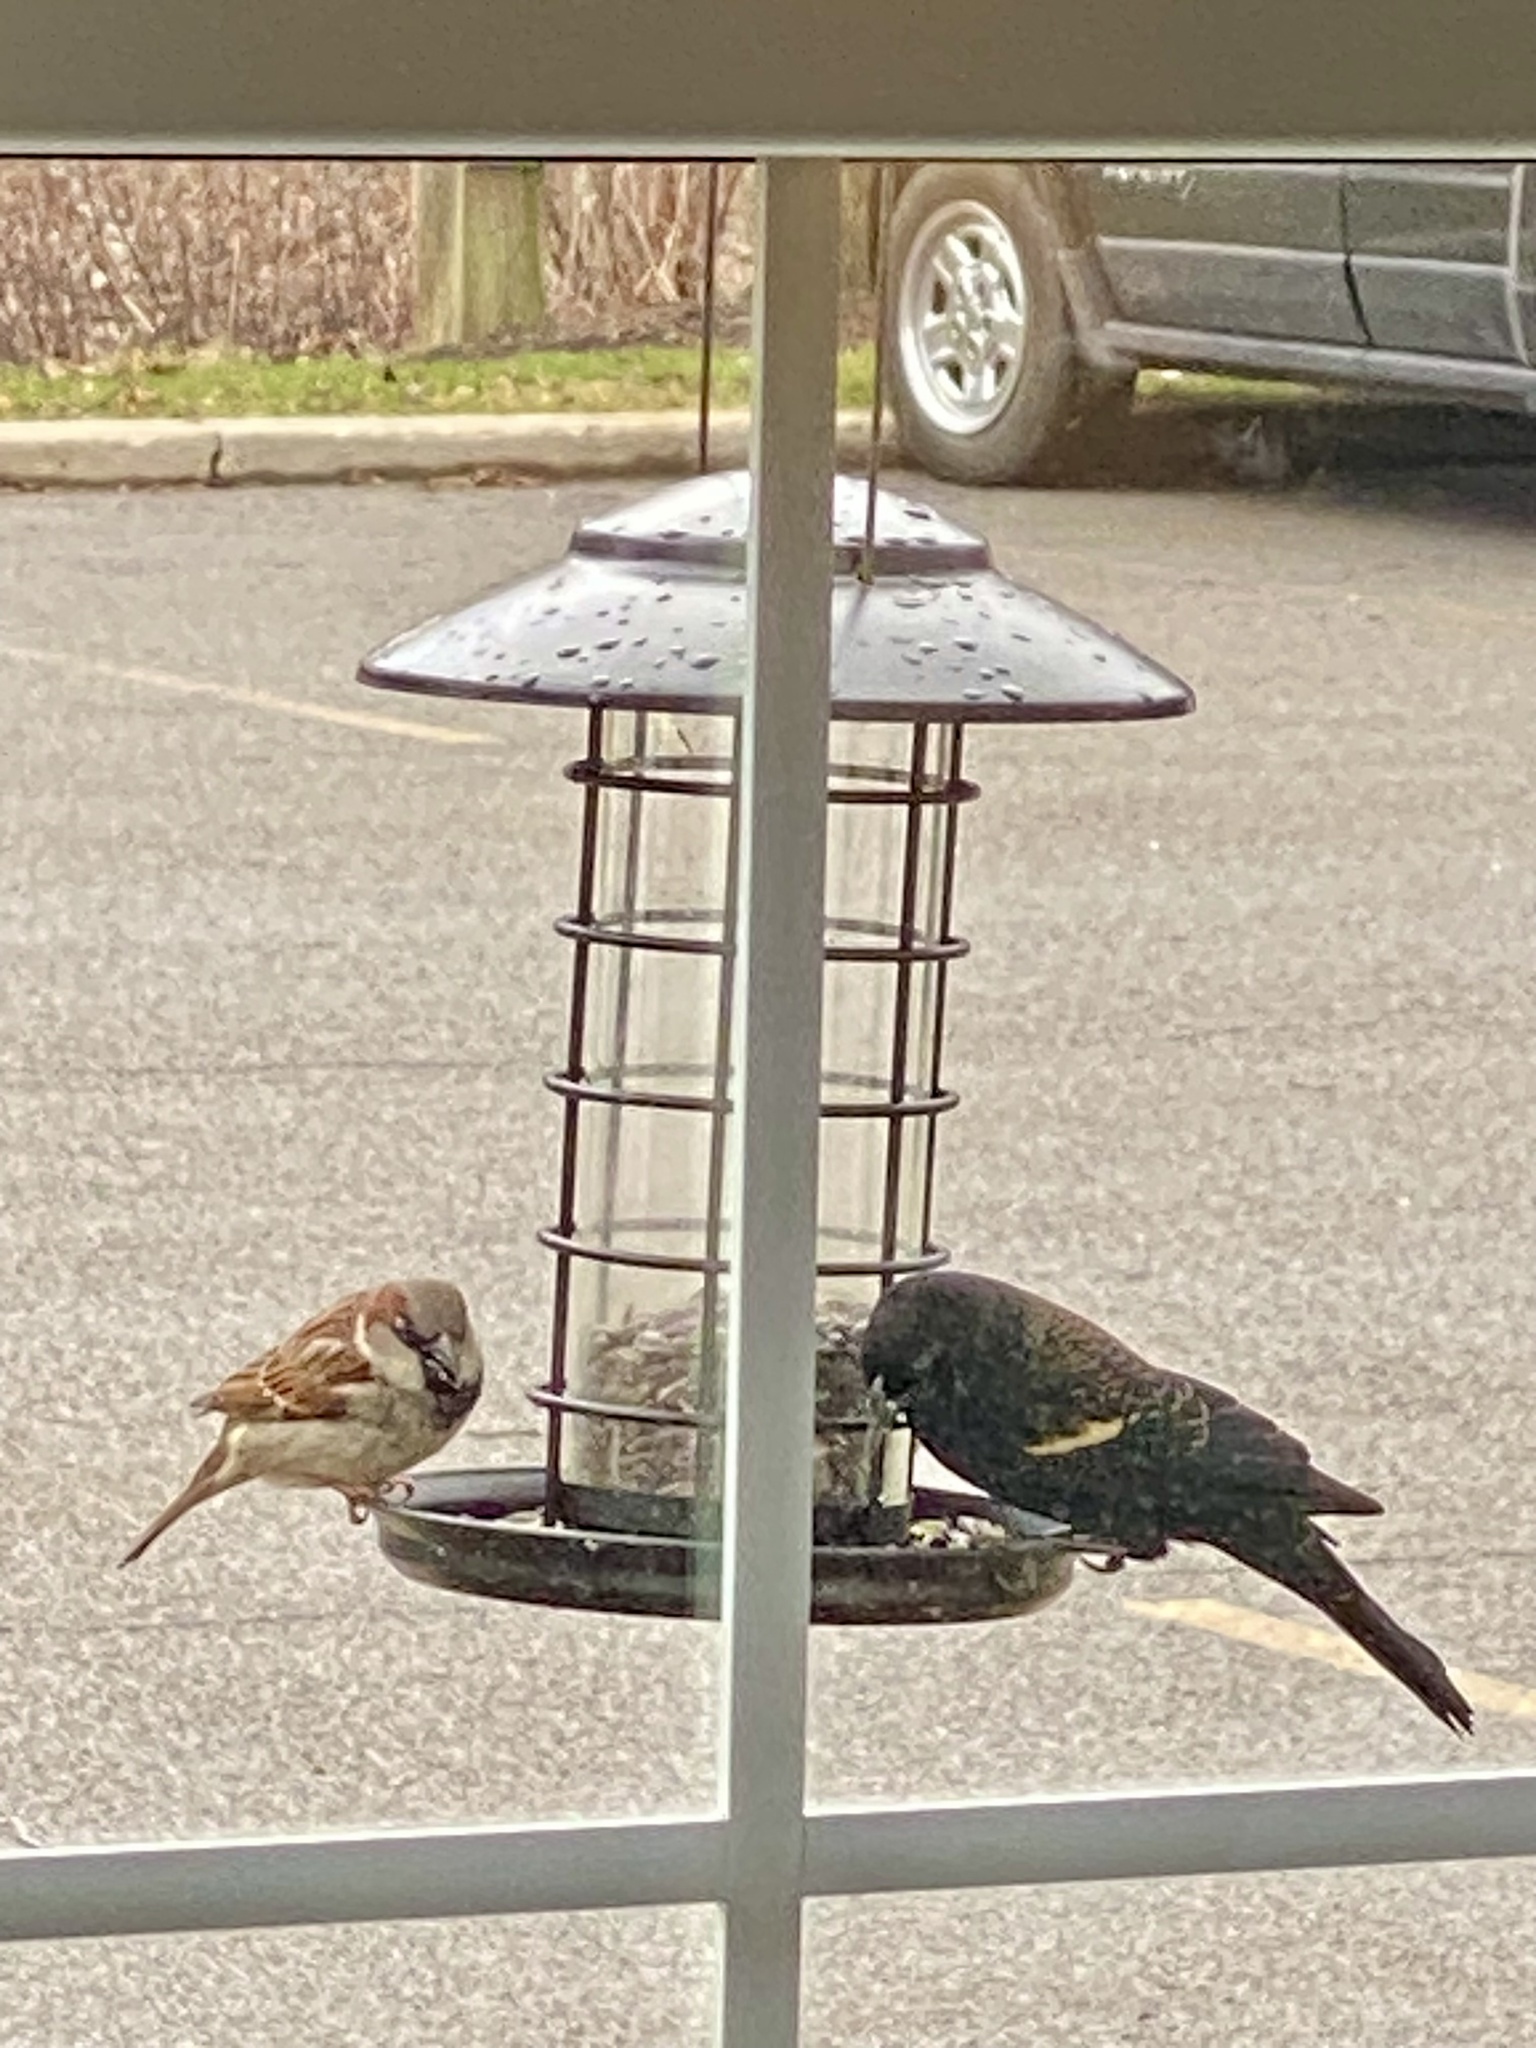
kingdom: Animalia
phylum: Chordata
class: Aves
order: Passeriformes
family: Icteridae
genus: Agelaius
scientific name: Agelaius phoeniceus
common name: Red-winged blackbird
